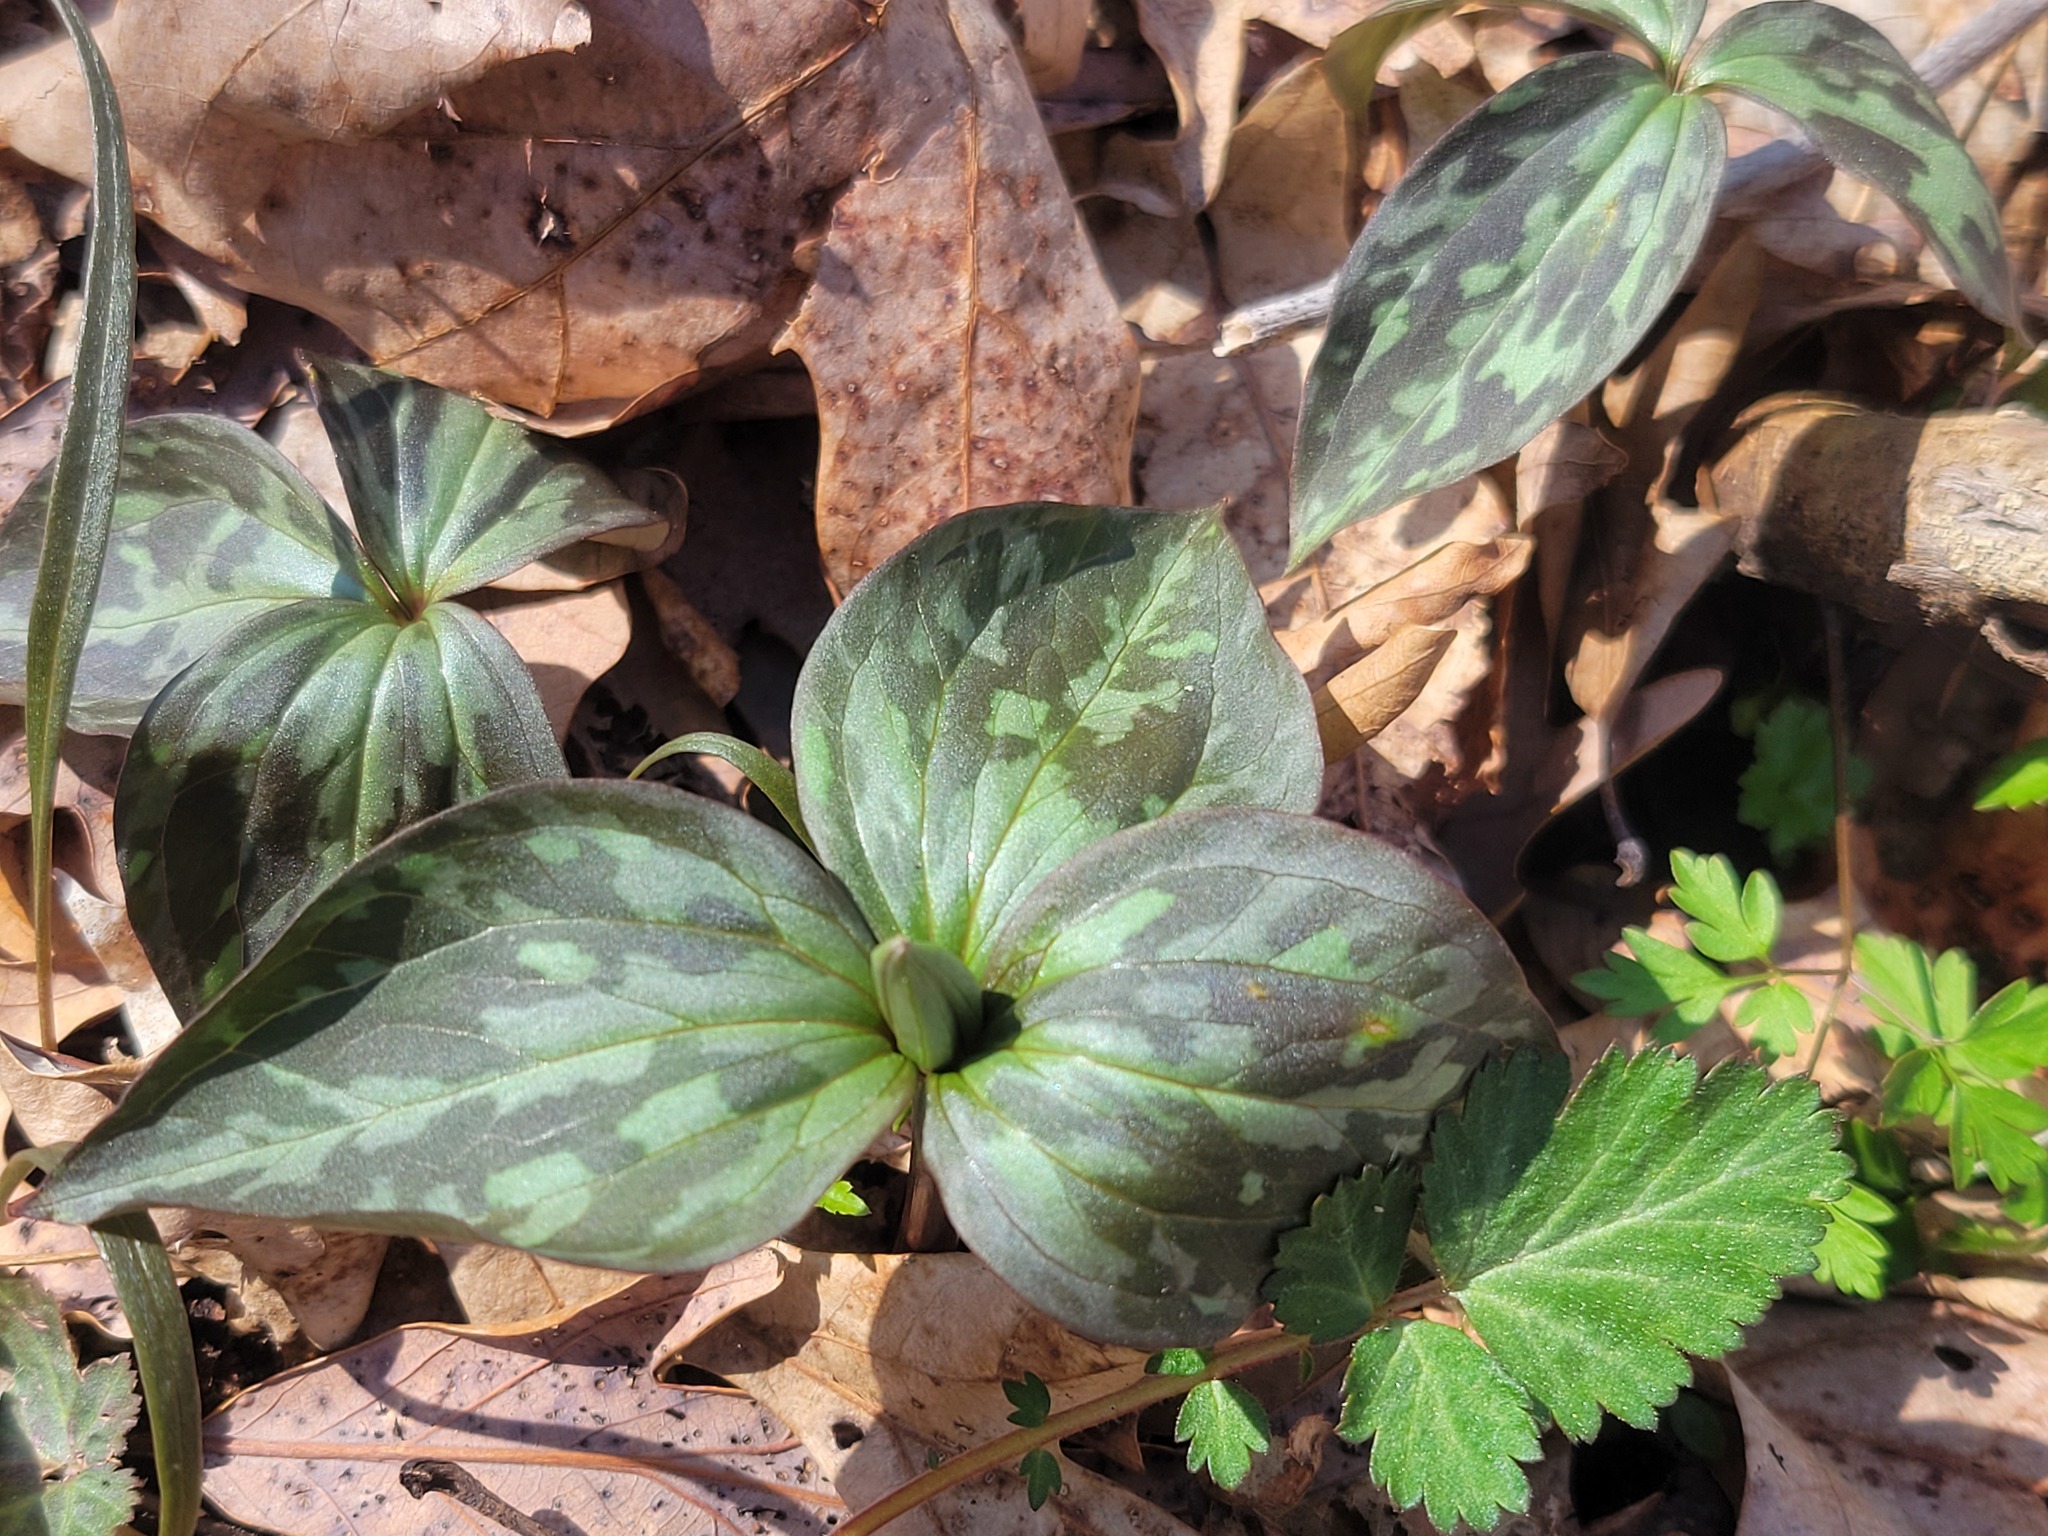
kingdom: Plantae
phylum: Tracheophyta
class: Liliopsida
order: Liliales
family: Melanthiaceae
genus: Trillium
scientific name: Trillium recurvatum
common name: Bloody butcher
